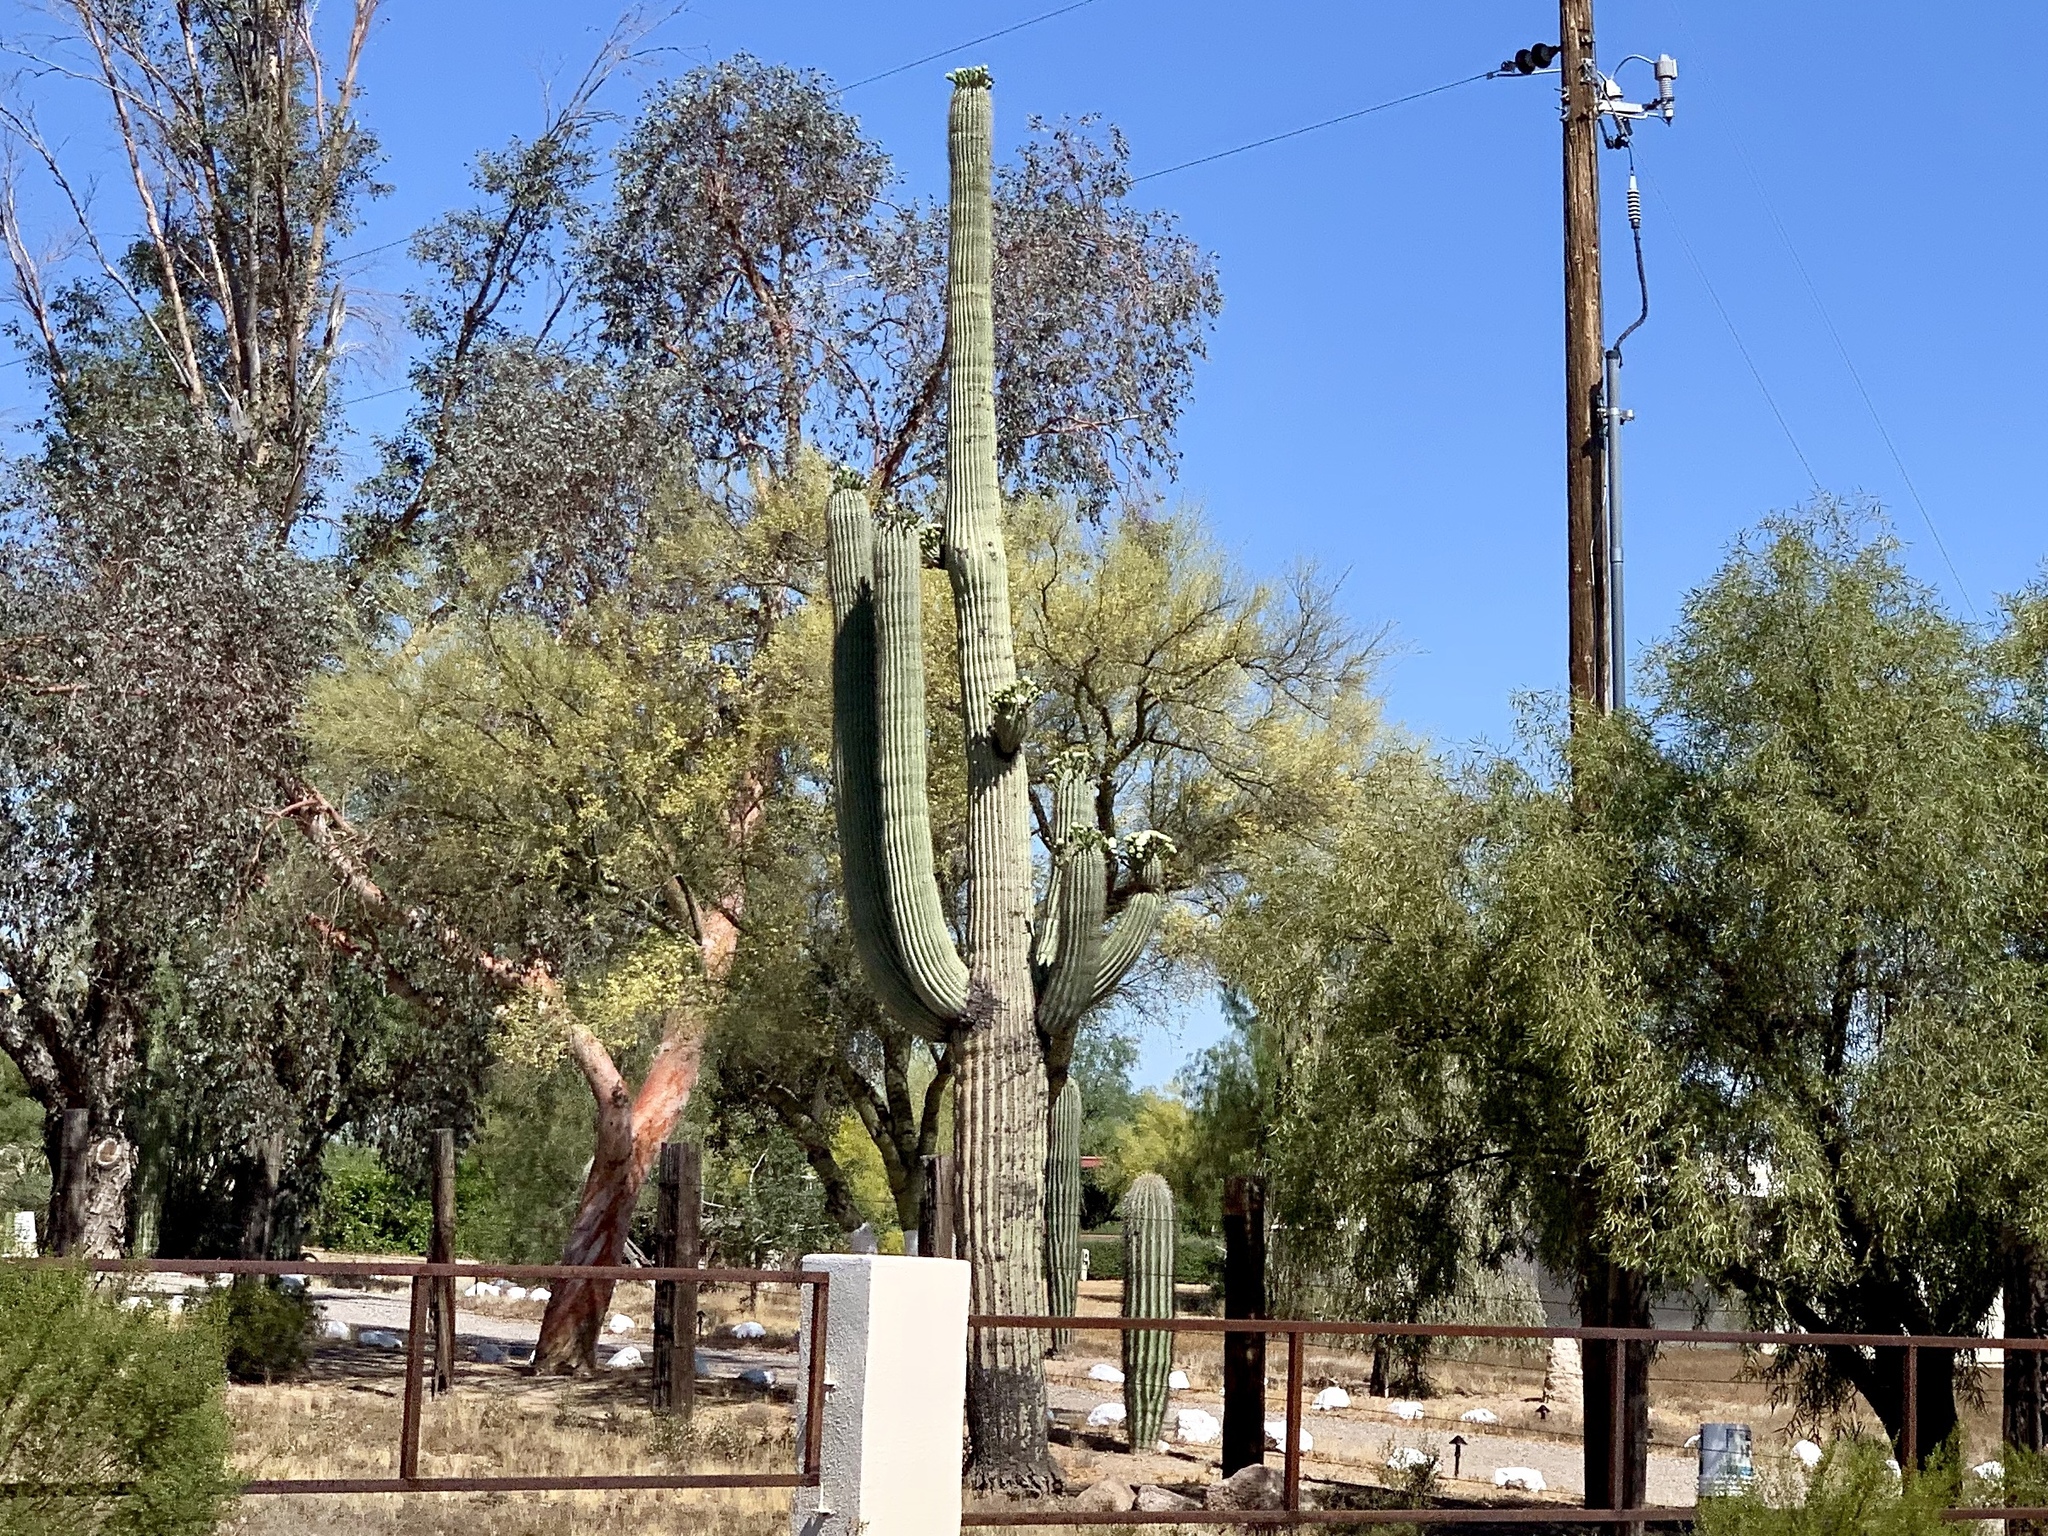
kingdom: Plantae
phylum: Tracheophyta
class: Magnoliopsida
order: Caryophyllales
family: Cactaceae
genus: Carnegiea
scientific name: Carnegiea gigantea
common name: Saguaro
